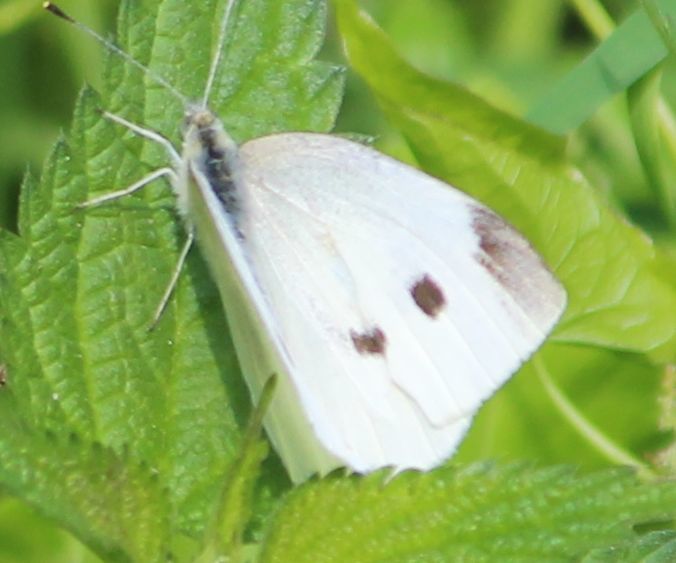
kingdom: Animalia
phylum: Arthropoda
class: Insecta
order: Lepidoptera
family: Pieridae
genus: Pieris
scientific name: Pieris rapae
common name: Small white
